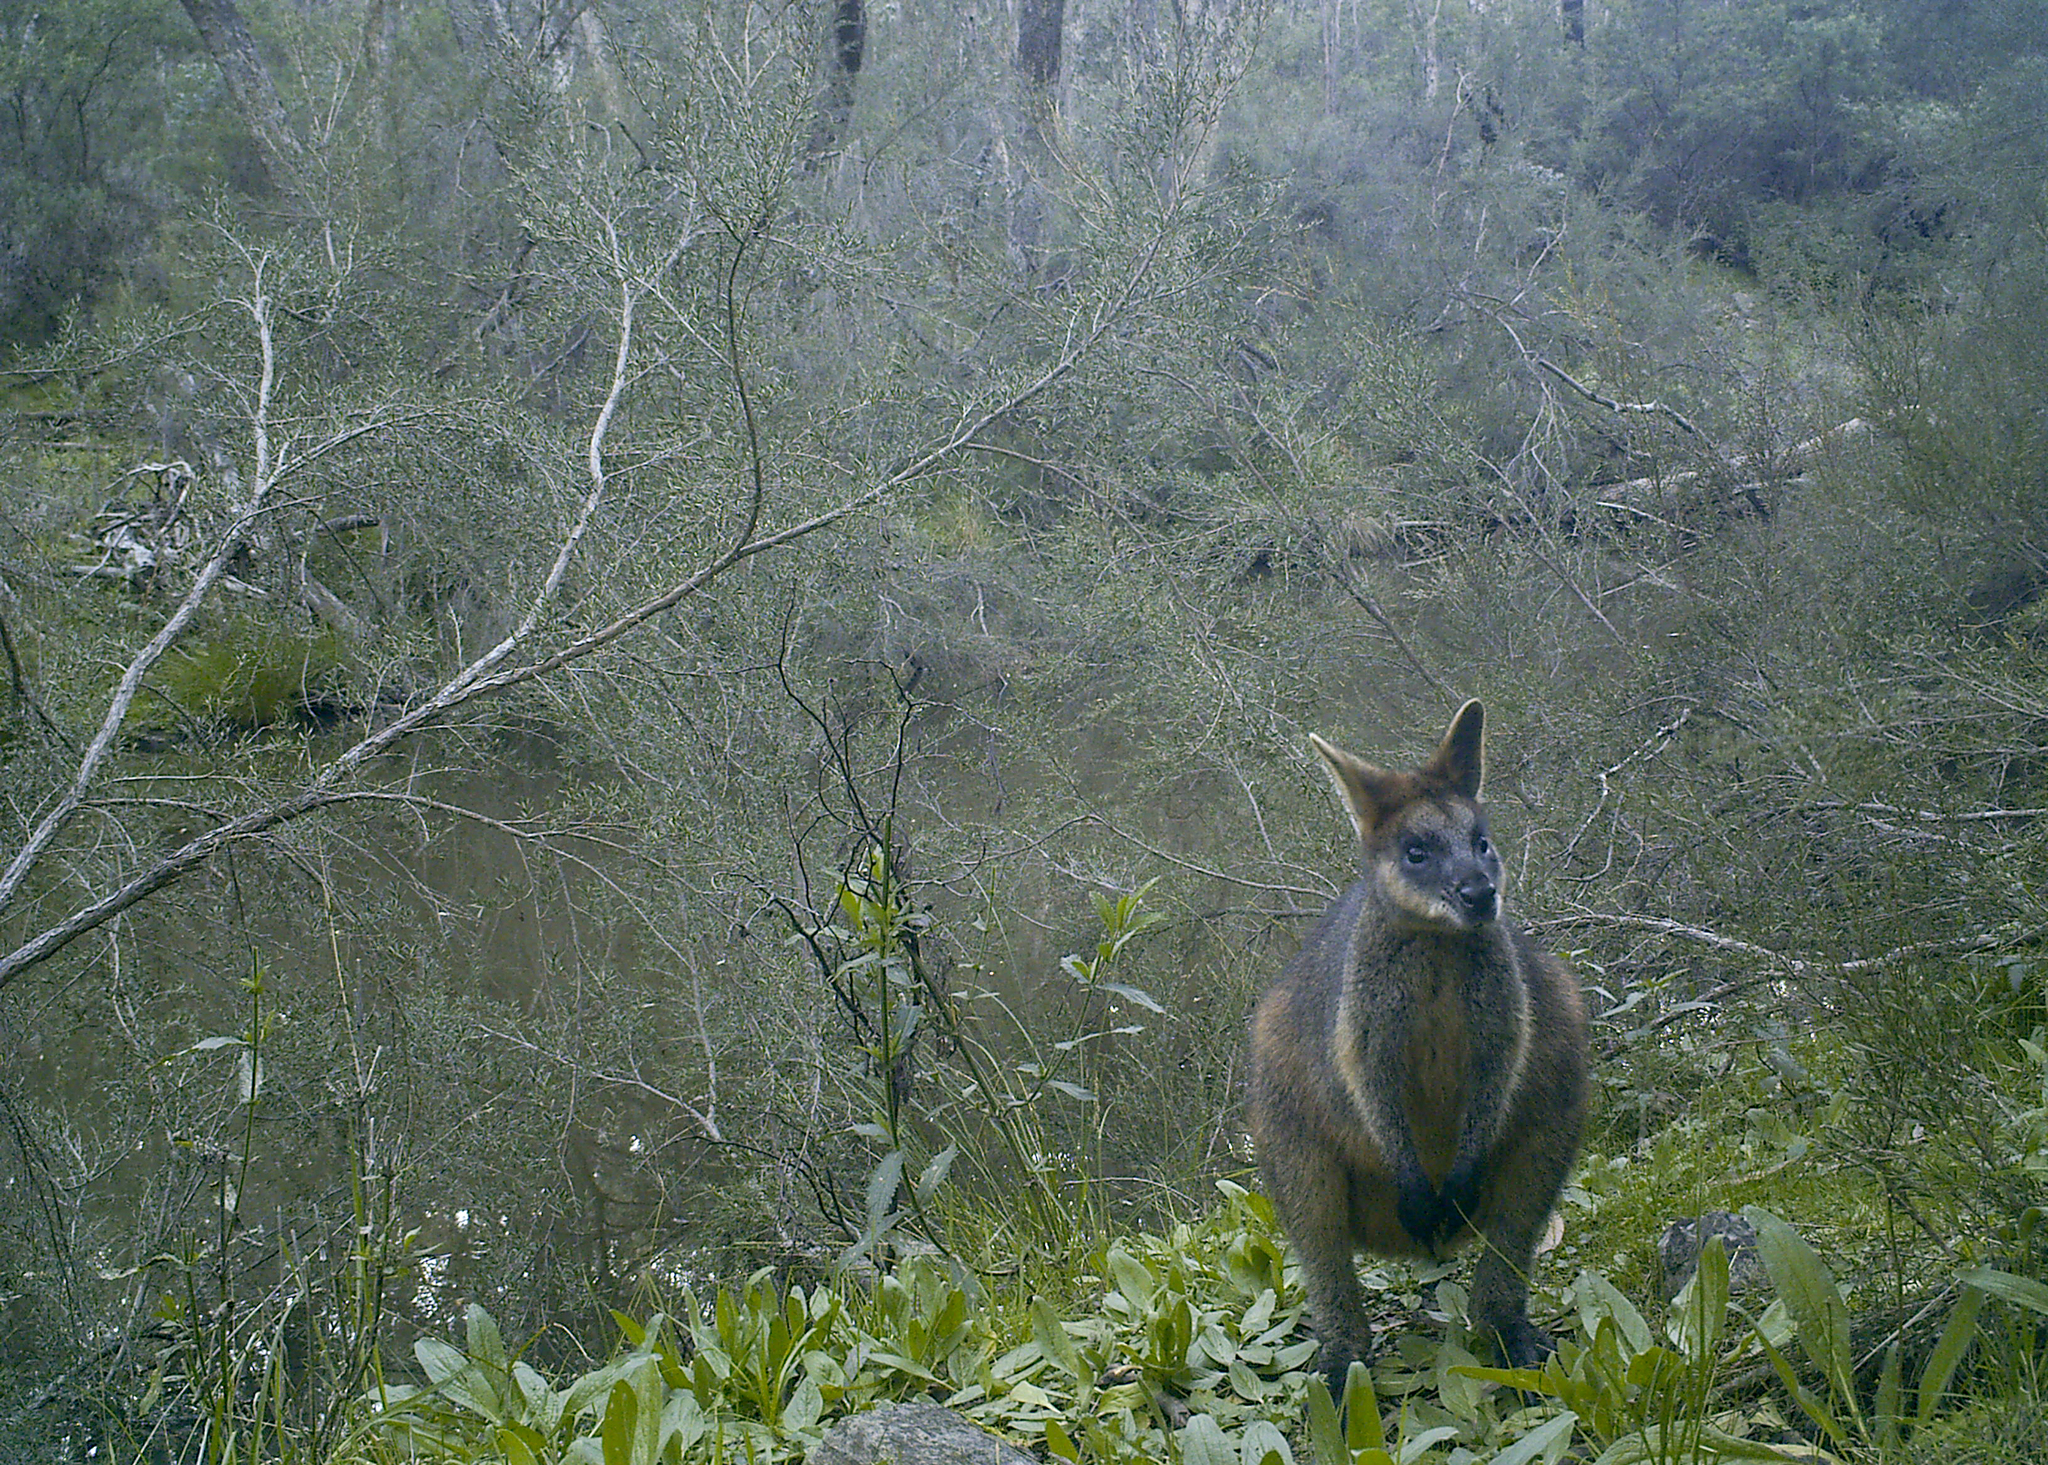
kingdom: Animalia
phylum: Chordata
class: Mammalia
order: Diprotodontia
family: Macropodidae
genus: Wallabia
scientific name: Wallabia bicolor
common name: Swamp wallaby
